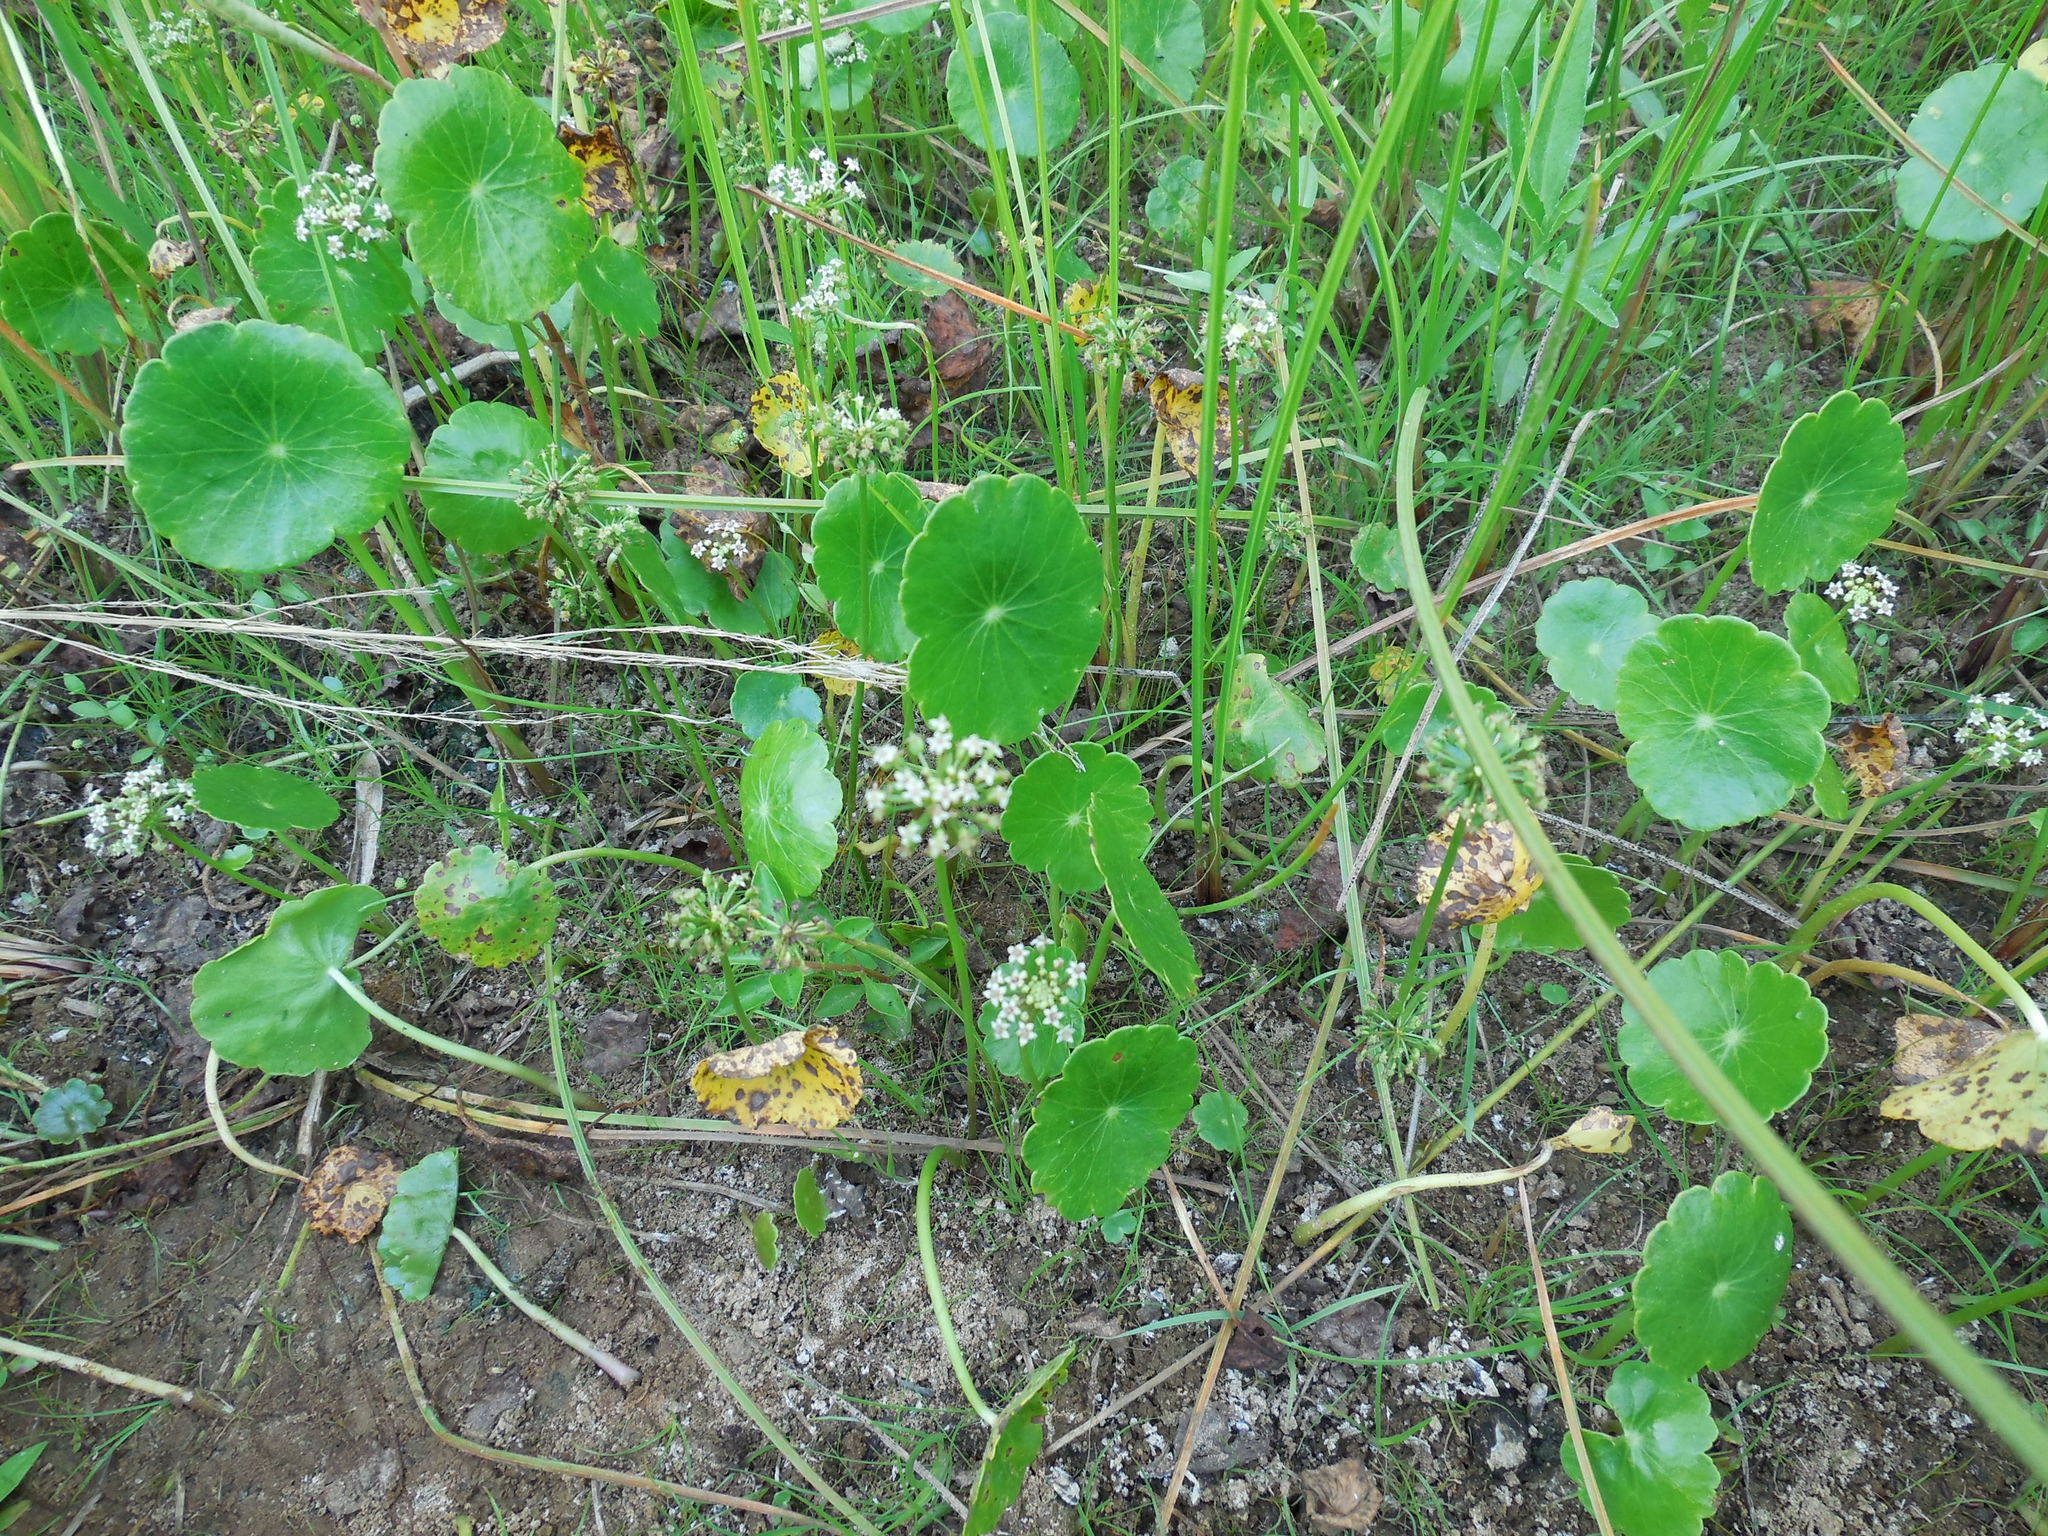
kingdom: Plantae
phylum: Tracheophyta
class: Magnoliopsida
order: Apiales
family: Araliaceae
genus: Hydrocotyle
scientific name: Hydrocotyle umbellata
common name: Water pennywort
